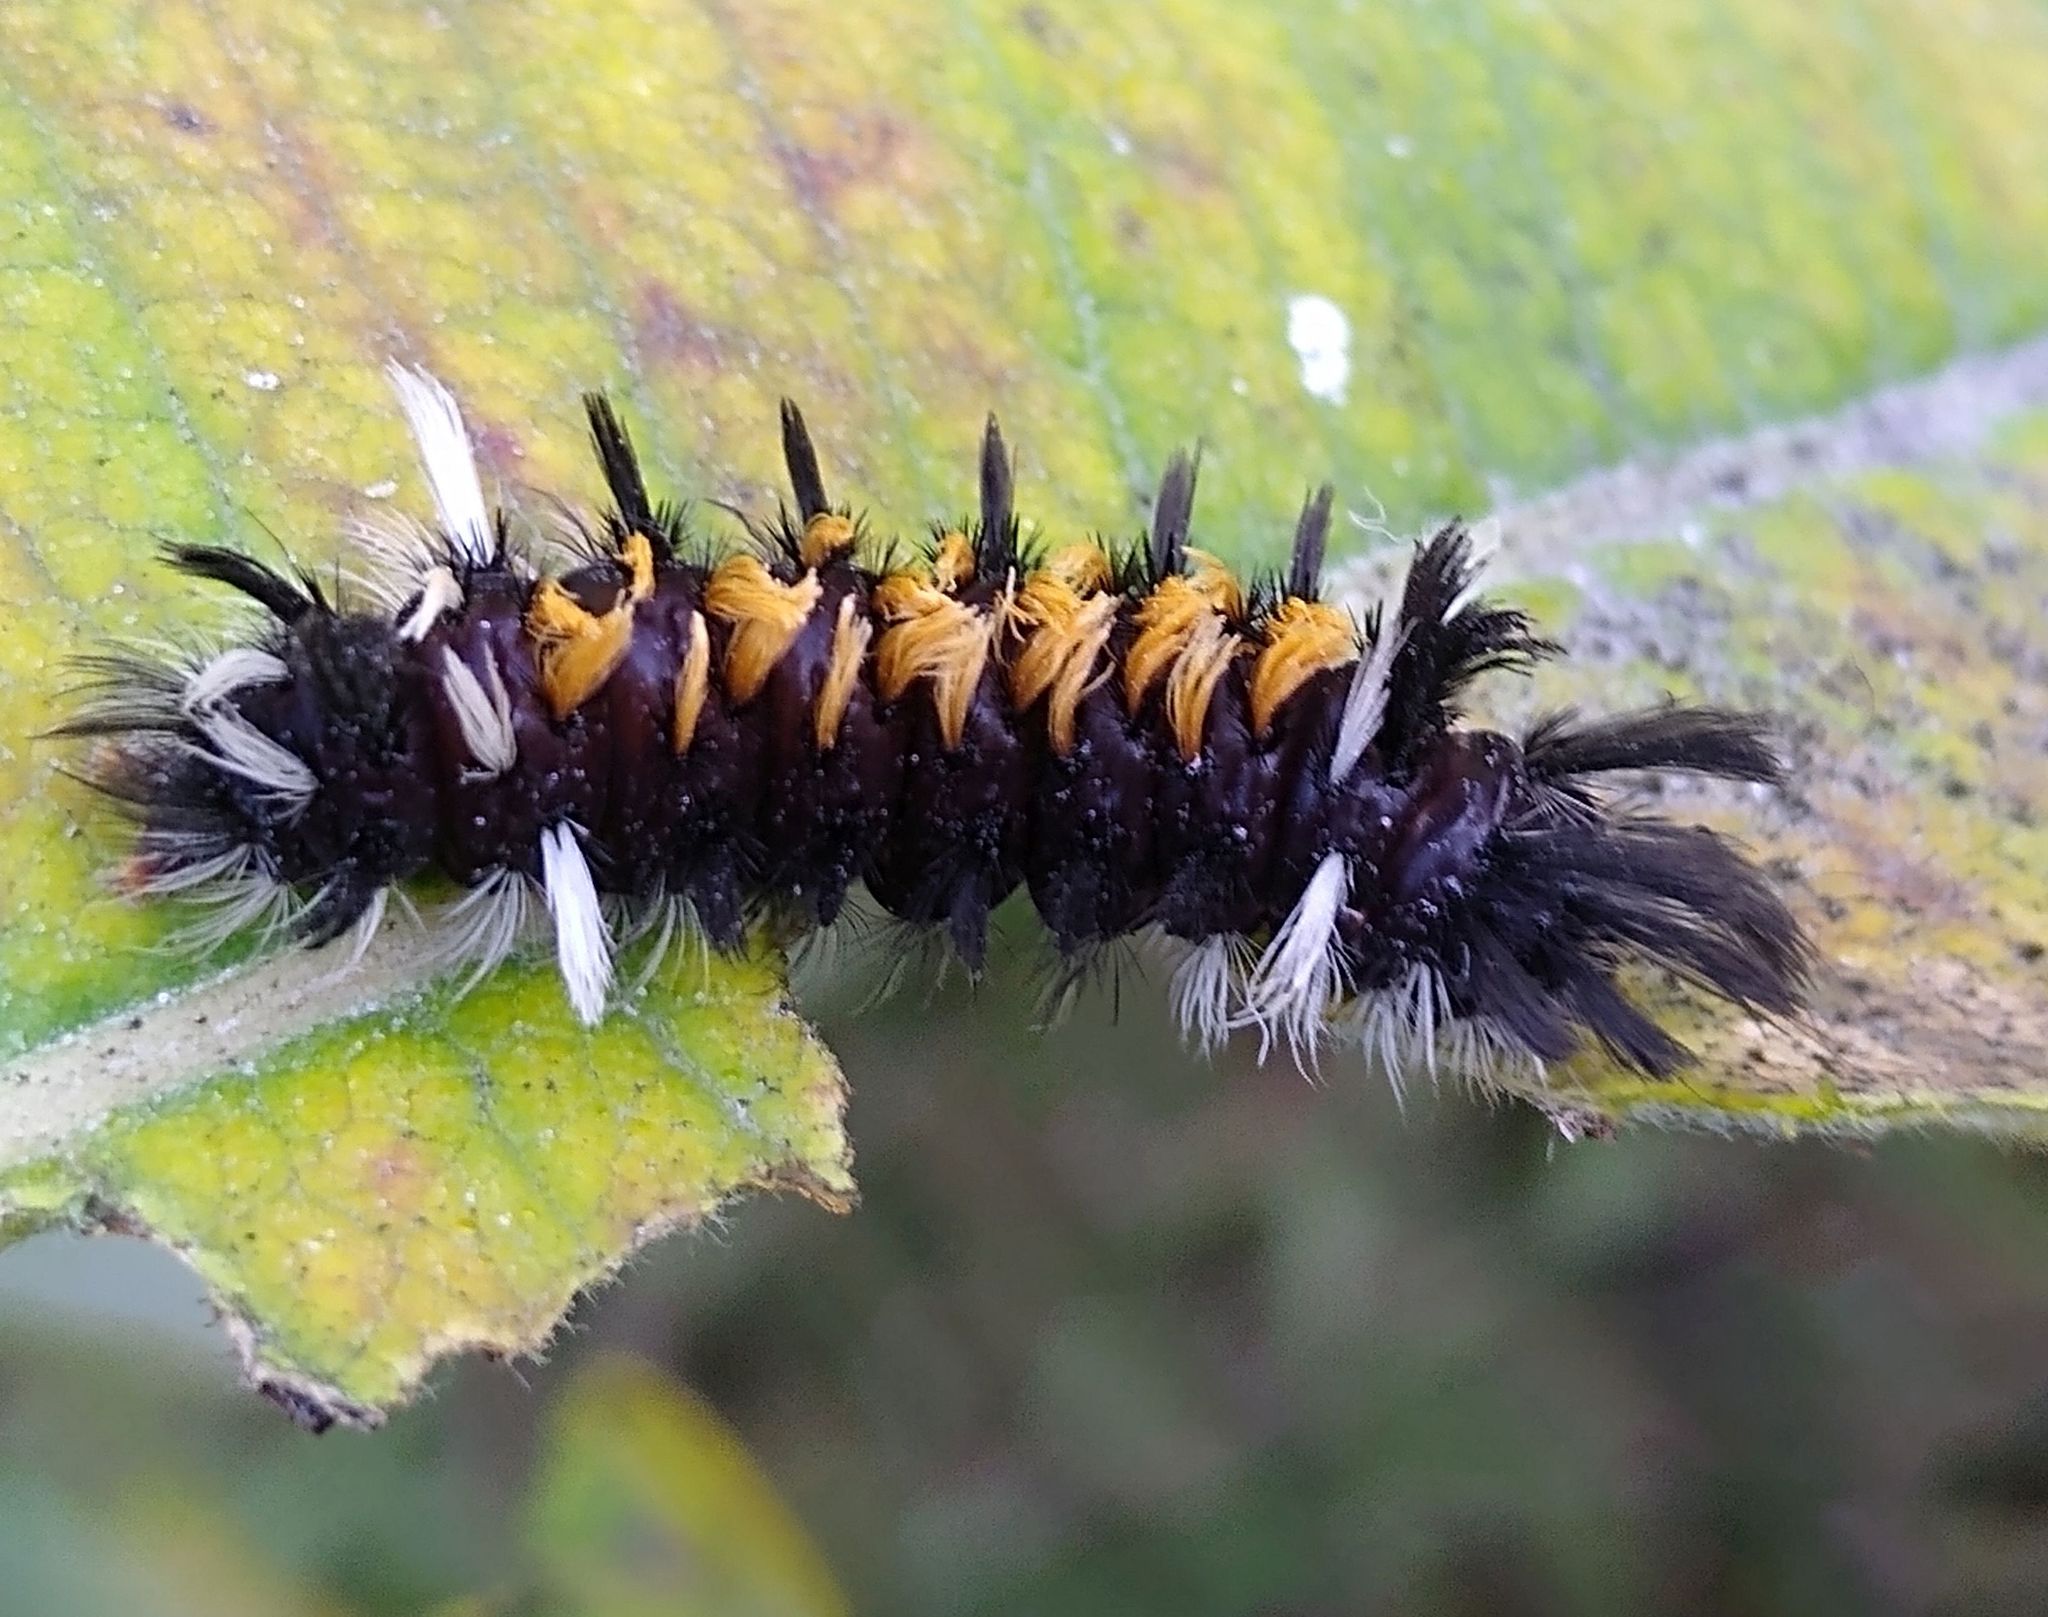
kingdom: Animalia
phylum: Arthropoda
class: Insecta
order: Lepidoptera
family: Erebidae
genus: Euchaetes
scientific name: Euchaetes egle
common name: Milkweed tussock moth
